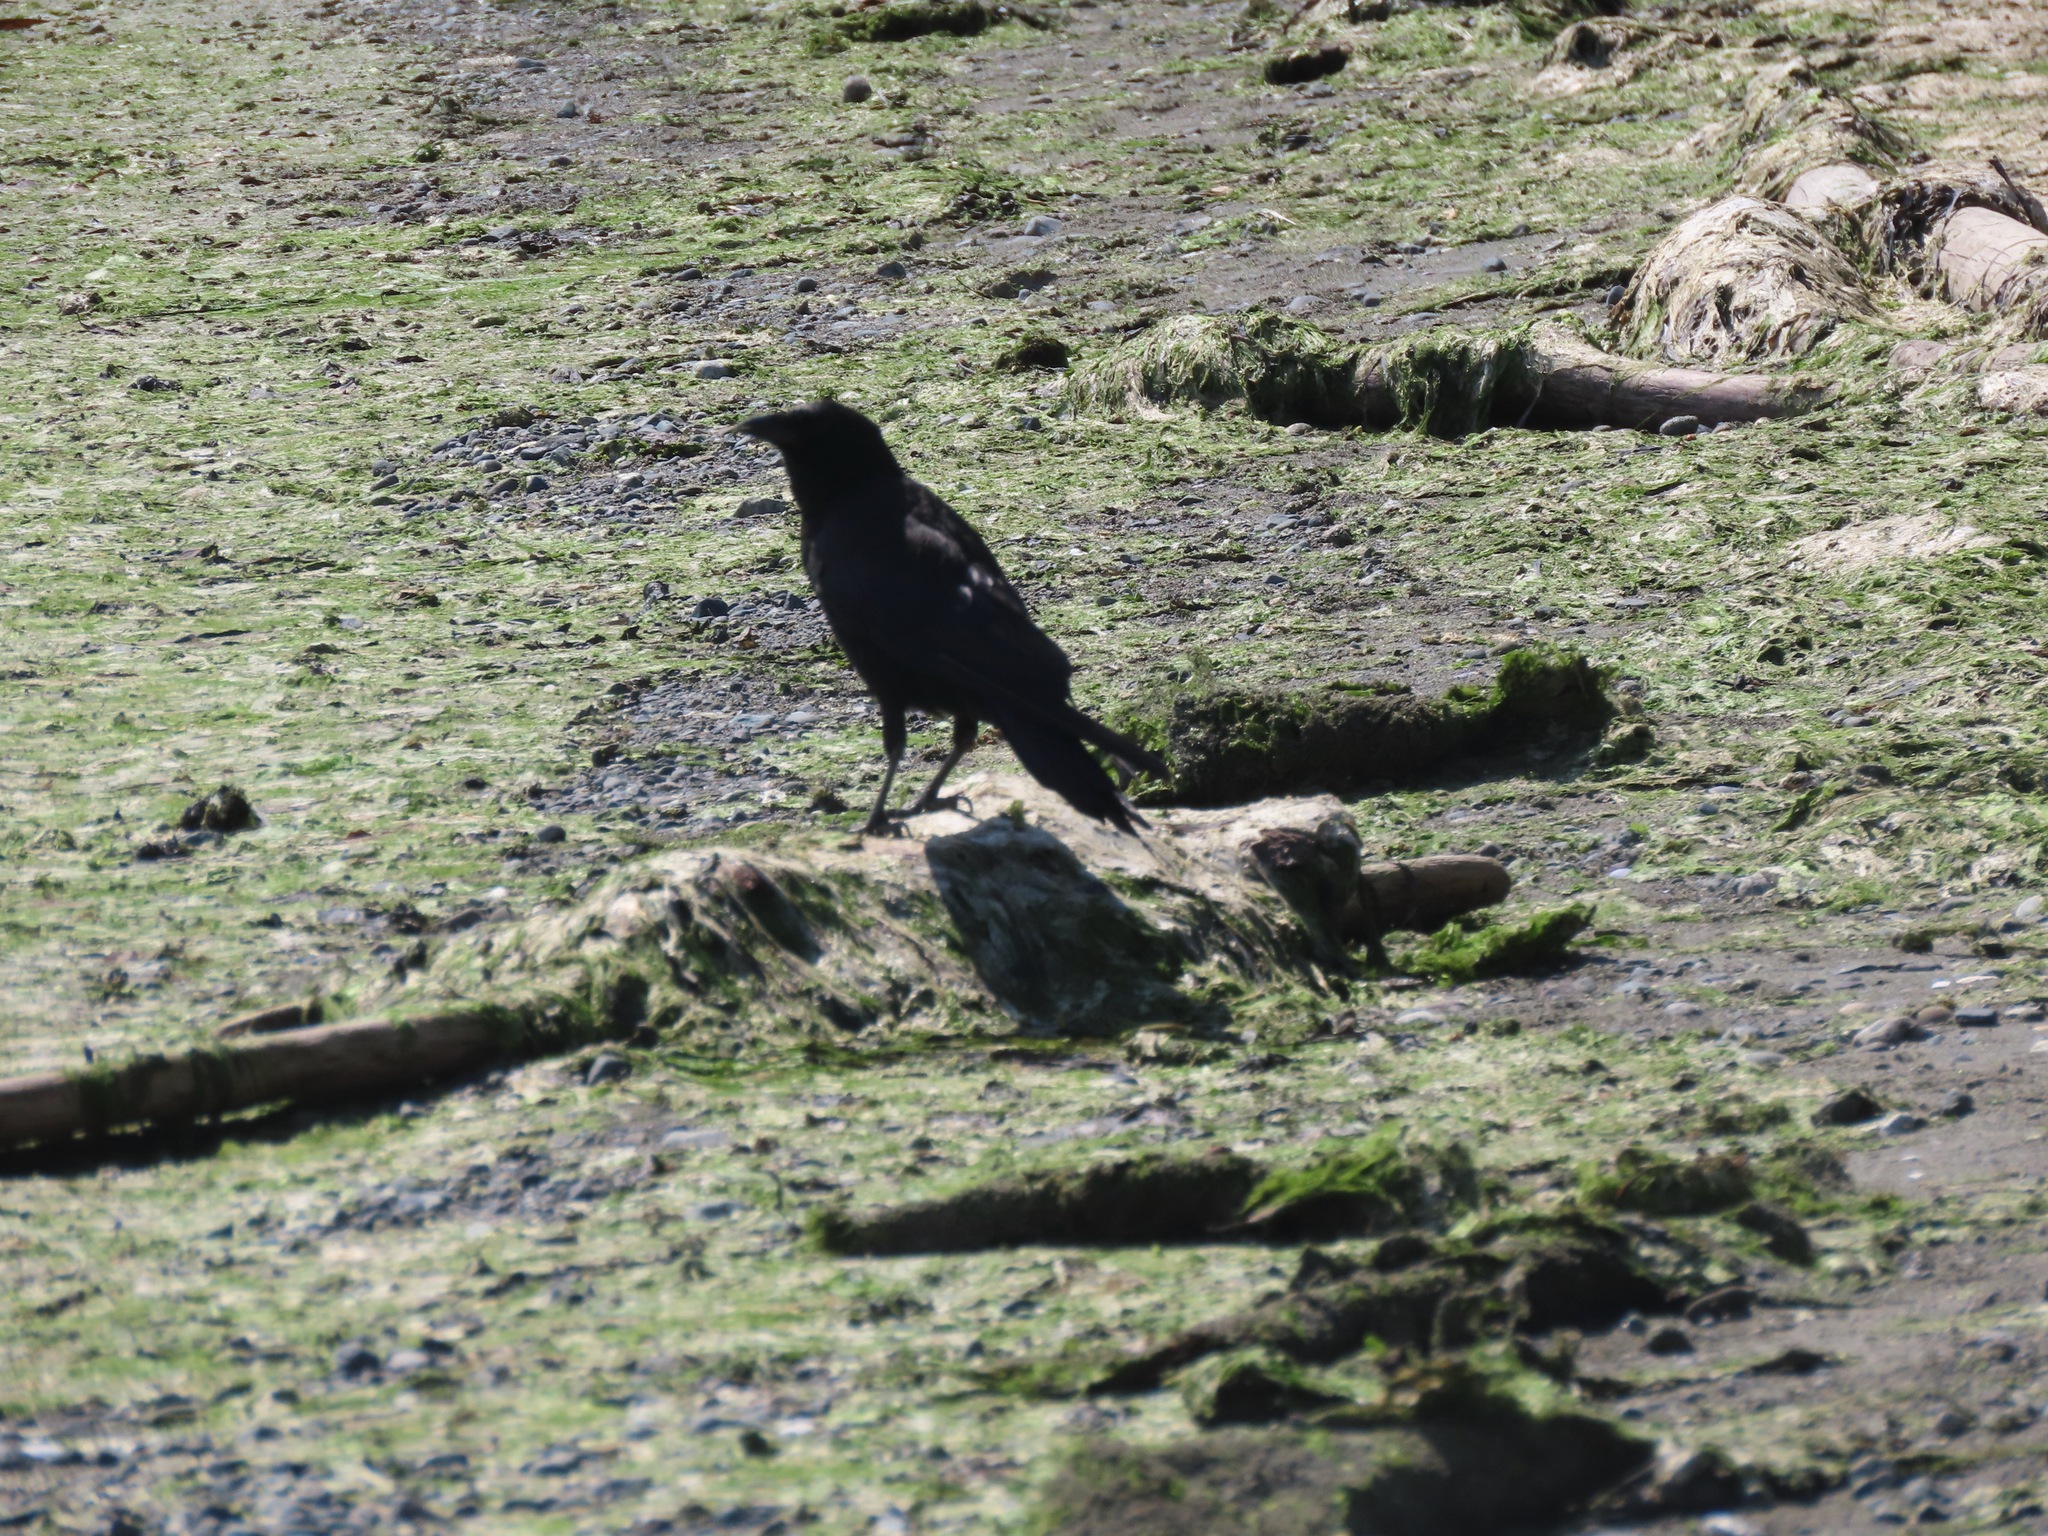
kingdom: Animalia
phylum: Chordata
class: Aves
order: Passeriformes
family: Corvidae
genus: Corvus
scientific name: Corvus brachyrhynchos
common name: American crow
